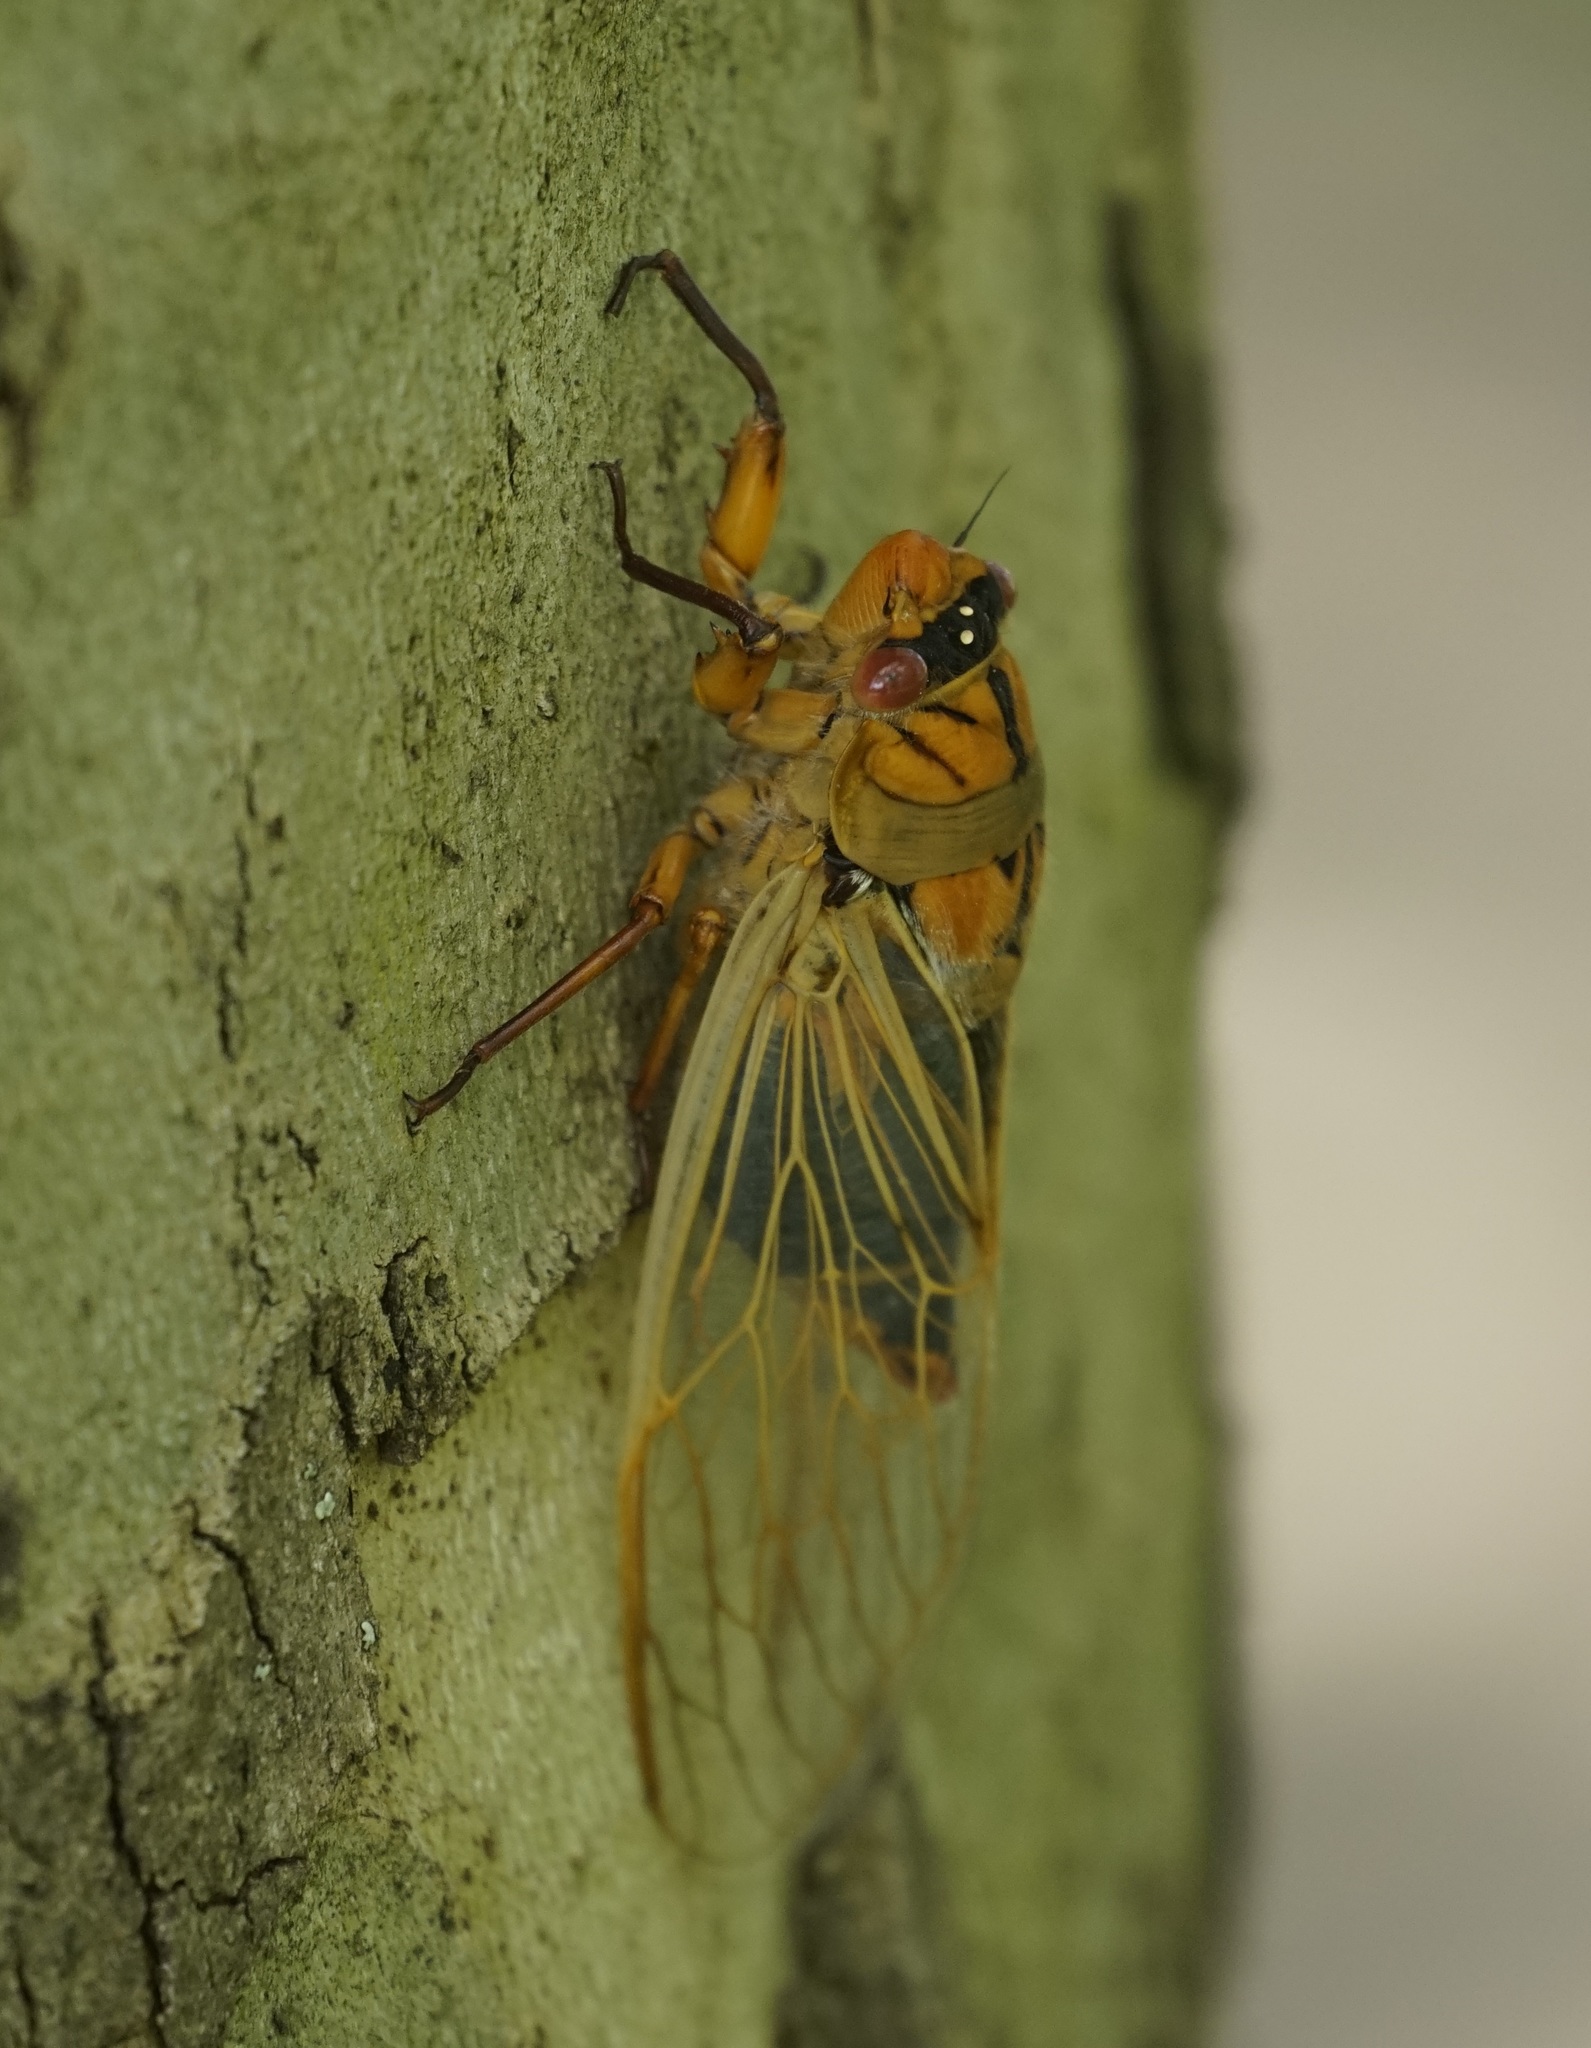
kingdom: Animalia
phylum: Arthropoda
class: Insecta
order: Hemiptera
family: Cicadidae
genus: Cyclochila
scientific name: Cyclochila australasiae
